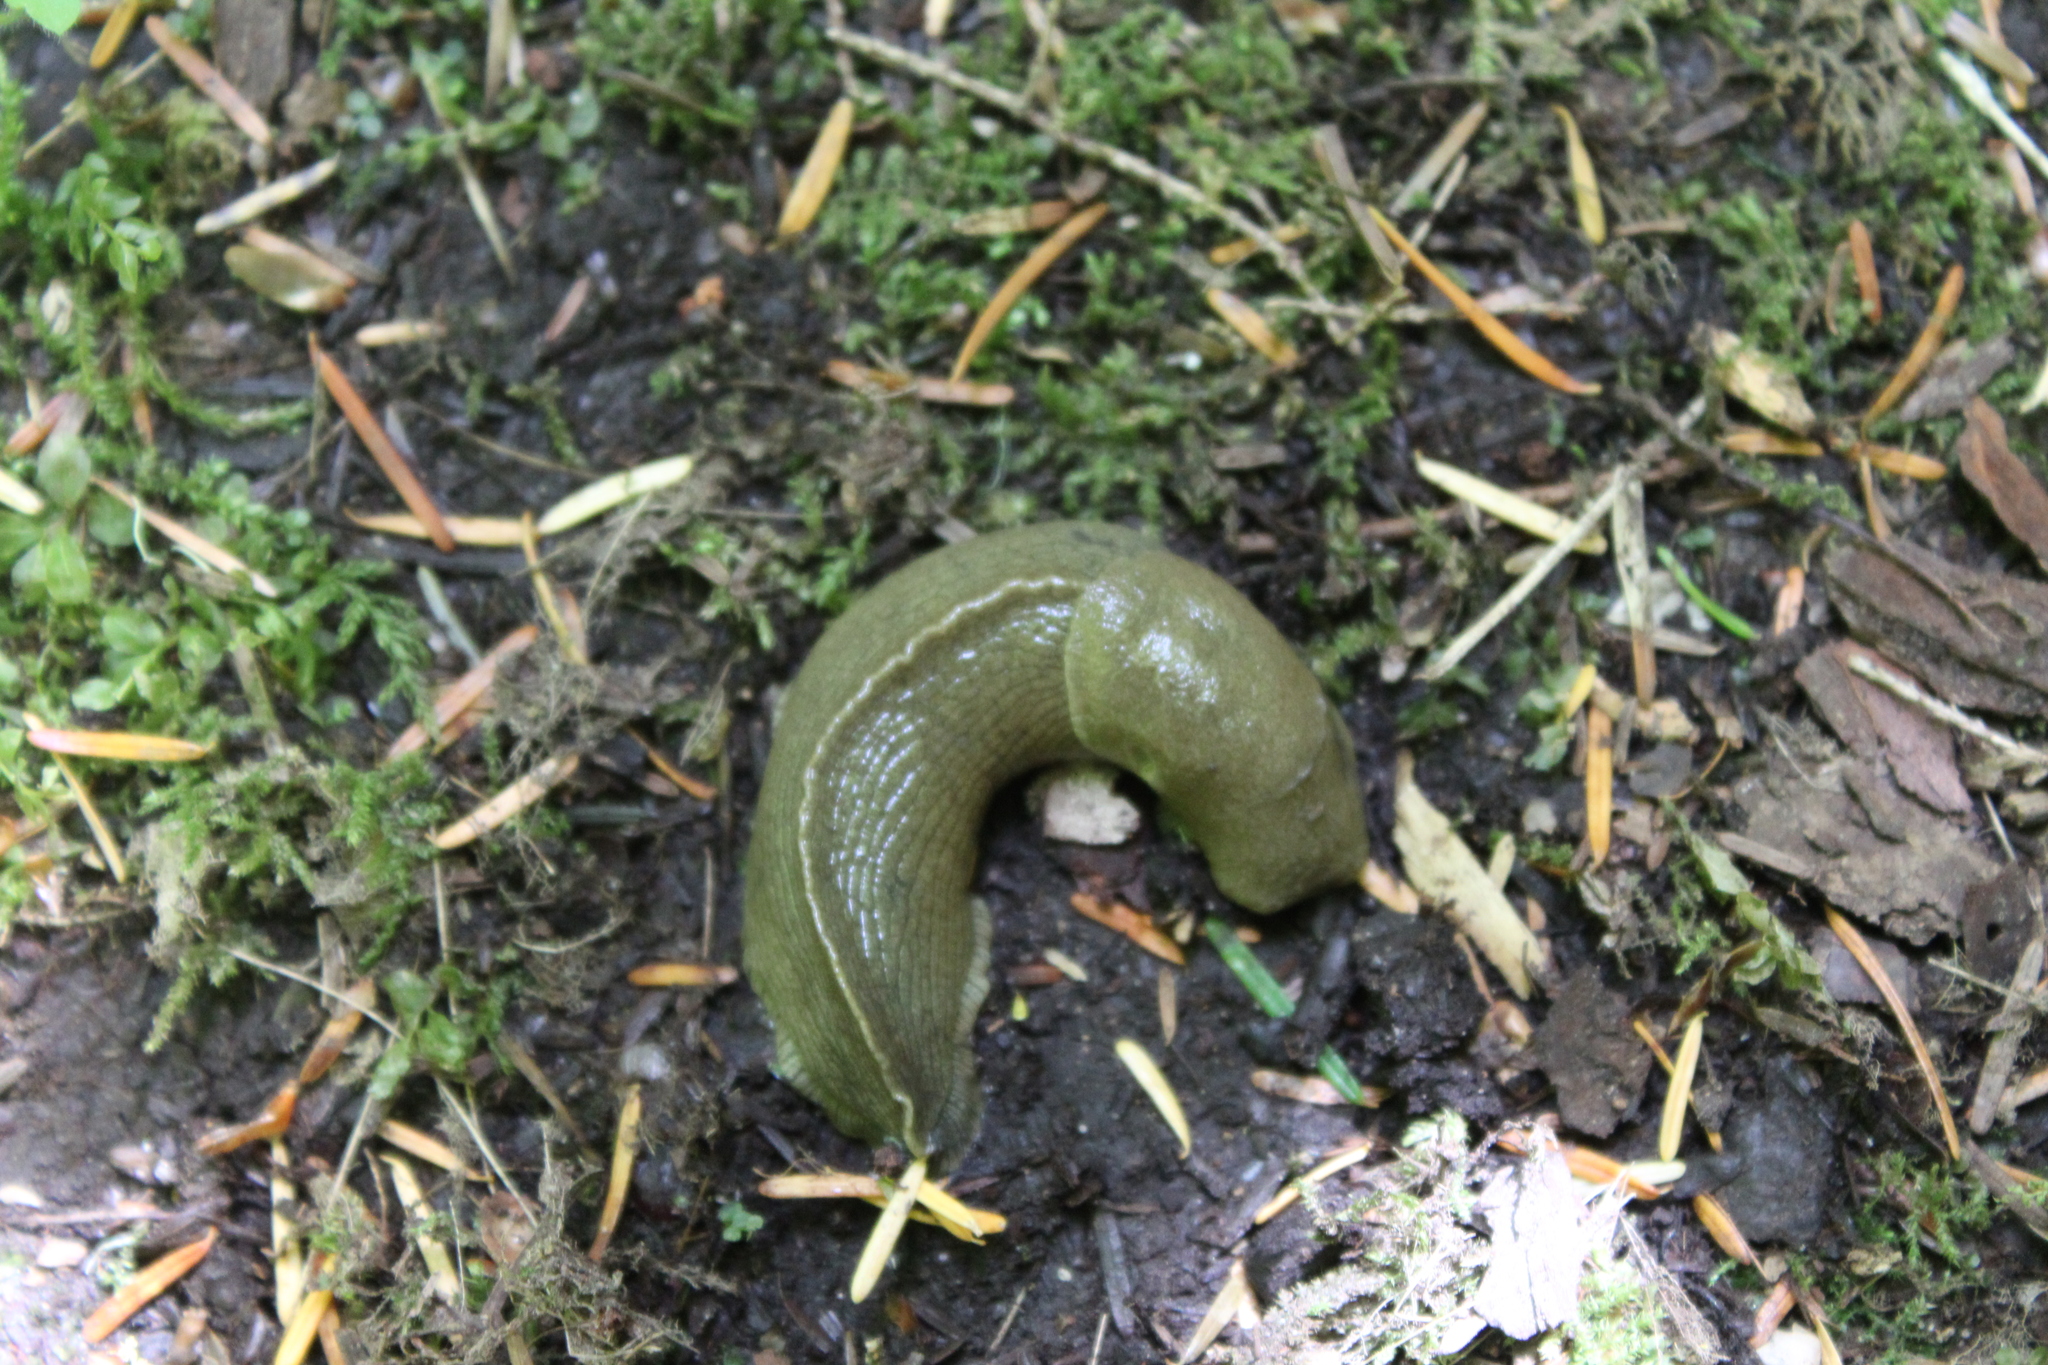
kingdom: Animalia
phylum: Mollusca
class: Gastropoda
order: Stylommatophora
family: Ariolimacidae
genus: Ariolimax
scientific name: Ariolimax columbianus
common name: Pacific banana slug
